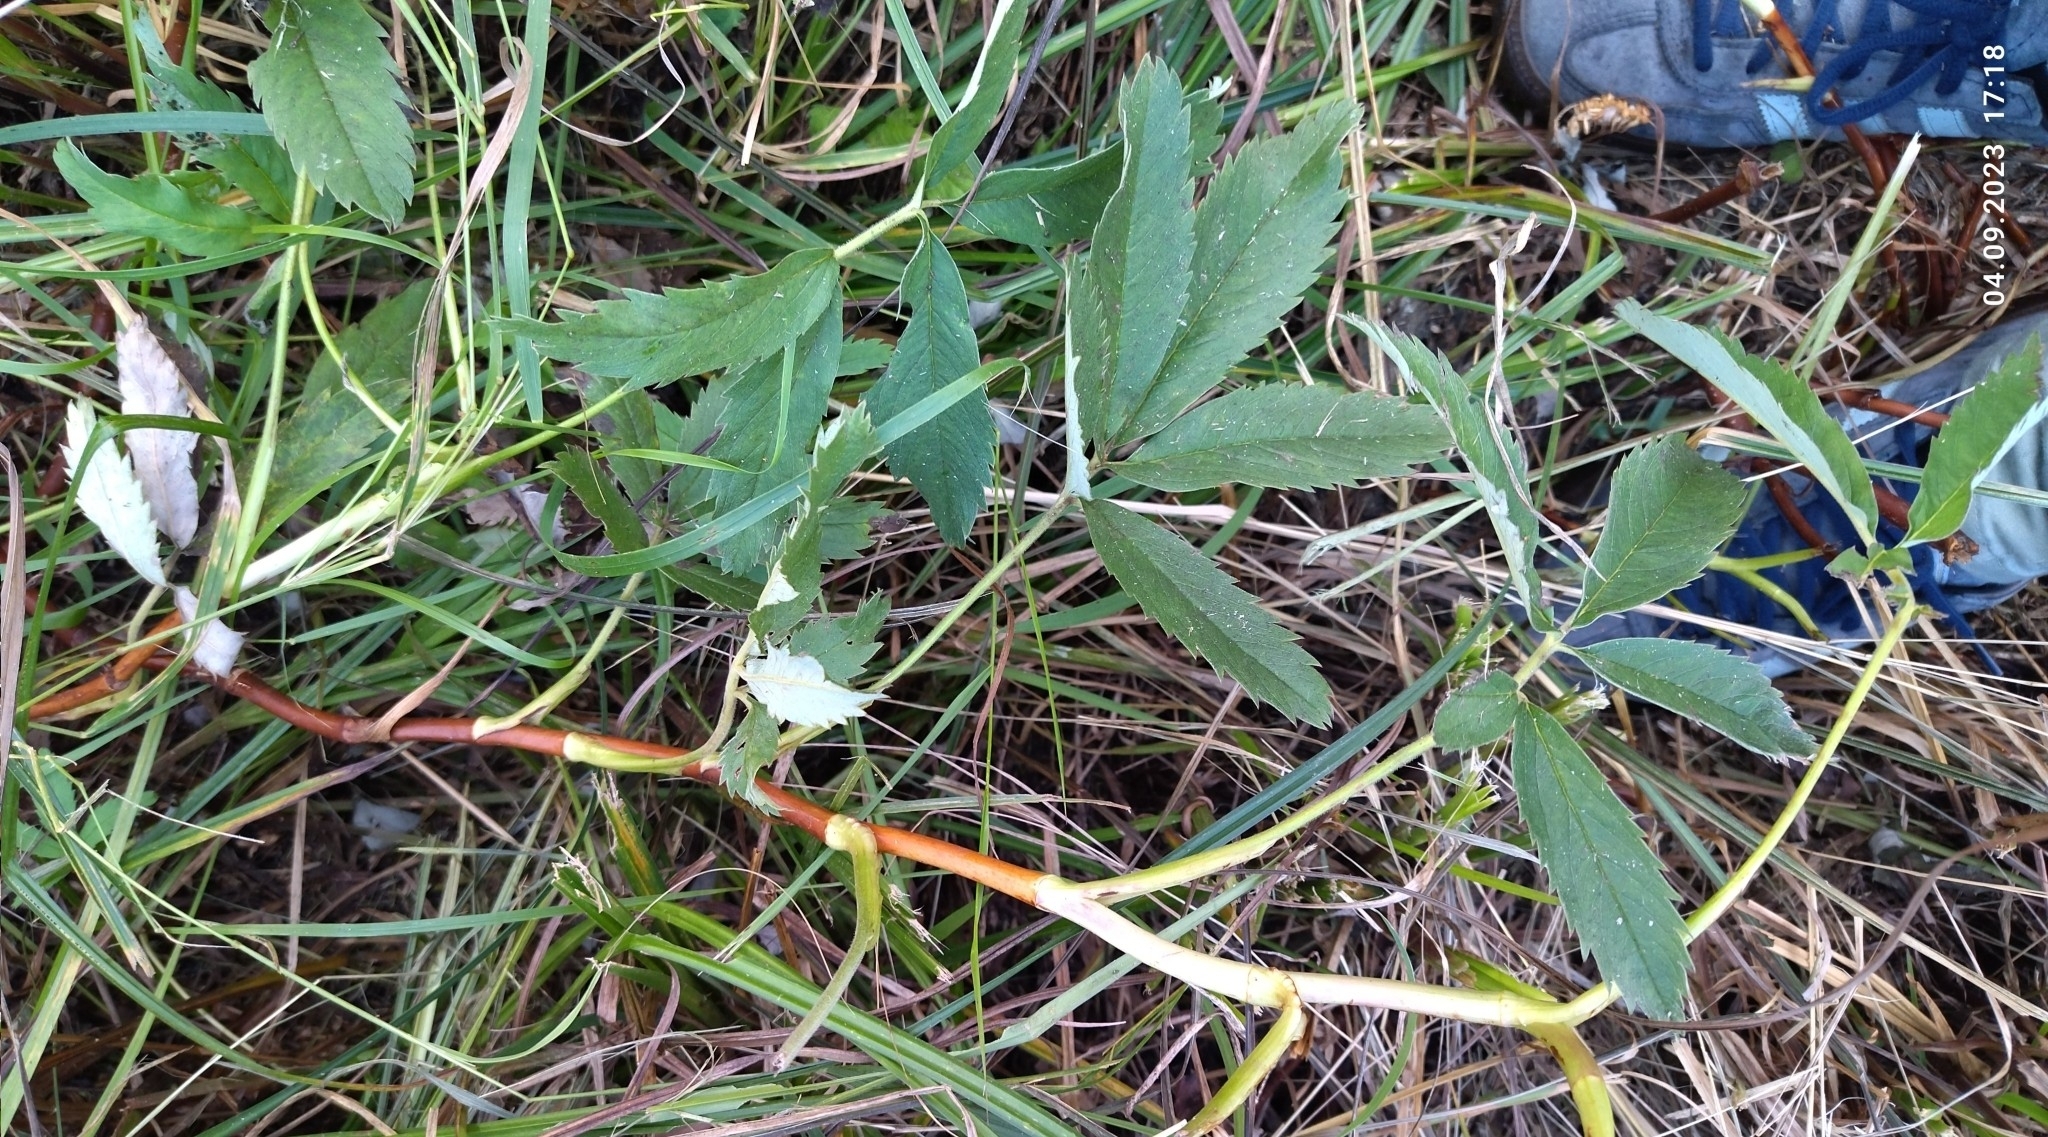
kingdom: Plantae
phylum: Tracheophyta
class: Magnoliopsida
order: Rosales
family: Rosaceae
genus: Comarum
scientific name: Comarum palustre
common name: Marsh cinquefoil
